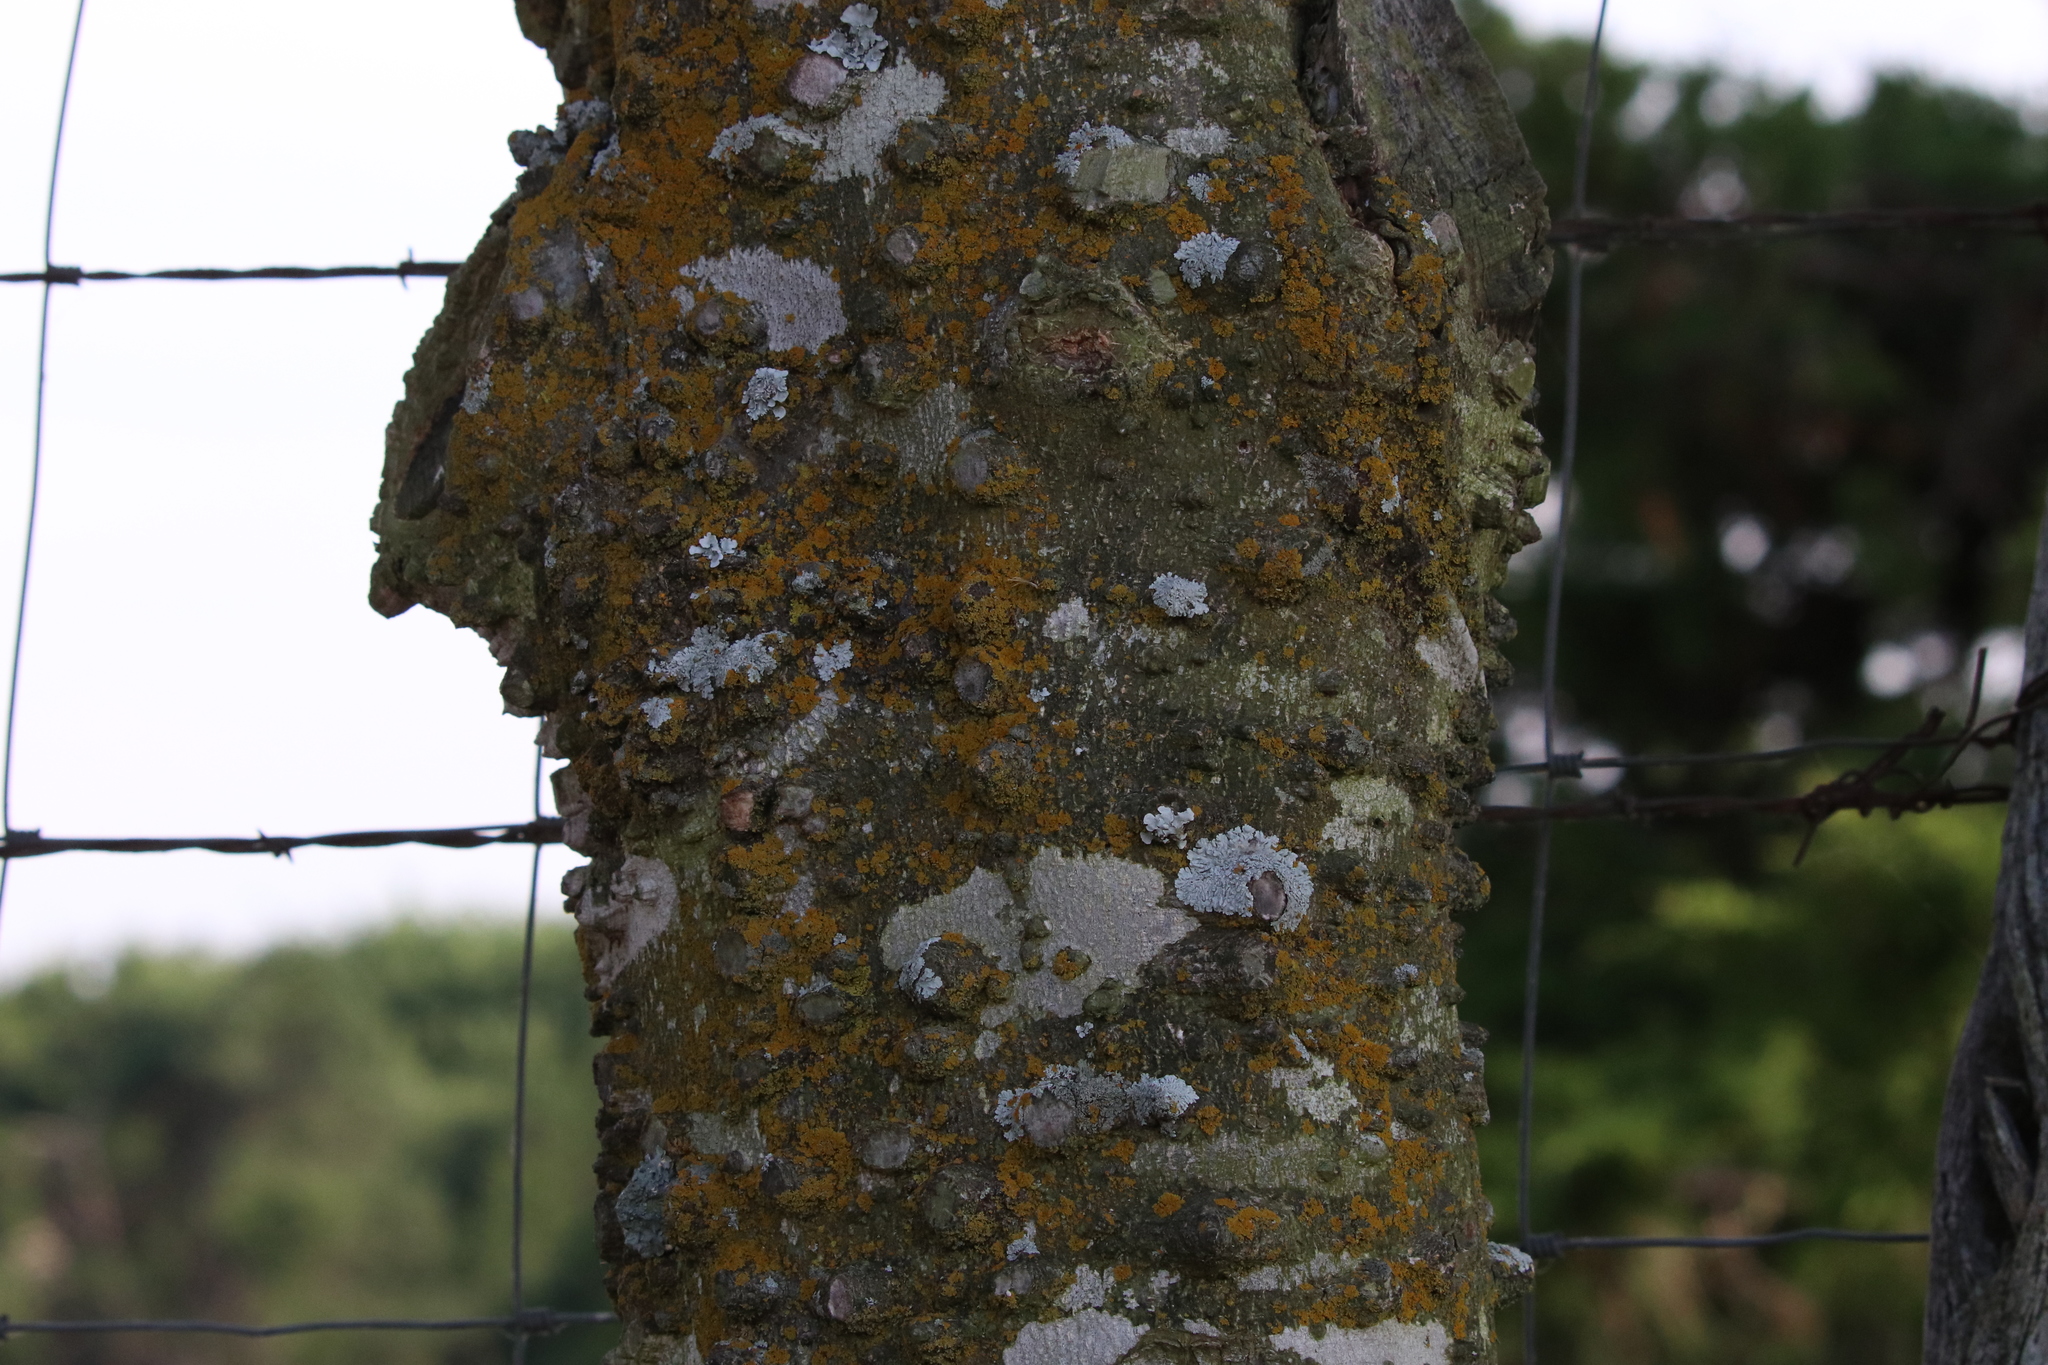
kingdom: Plantae
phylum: Tracheophyta
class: Magnoliopsida
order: Sapindales
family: Rutaceae
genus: Zanthoxylum
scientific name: Zanthoxylum clava-herculis
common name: Hercules'-club
